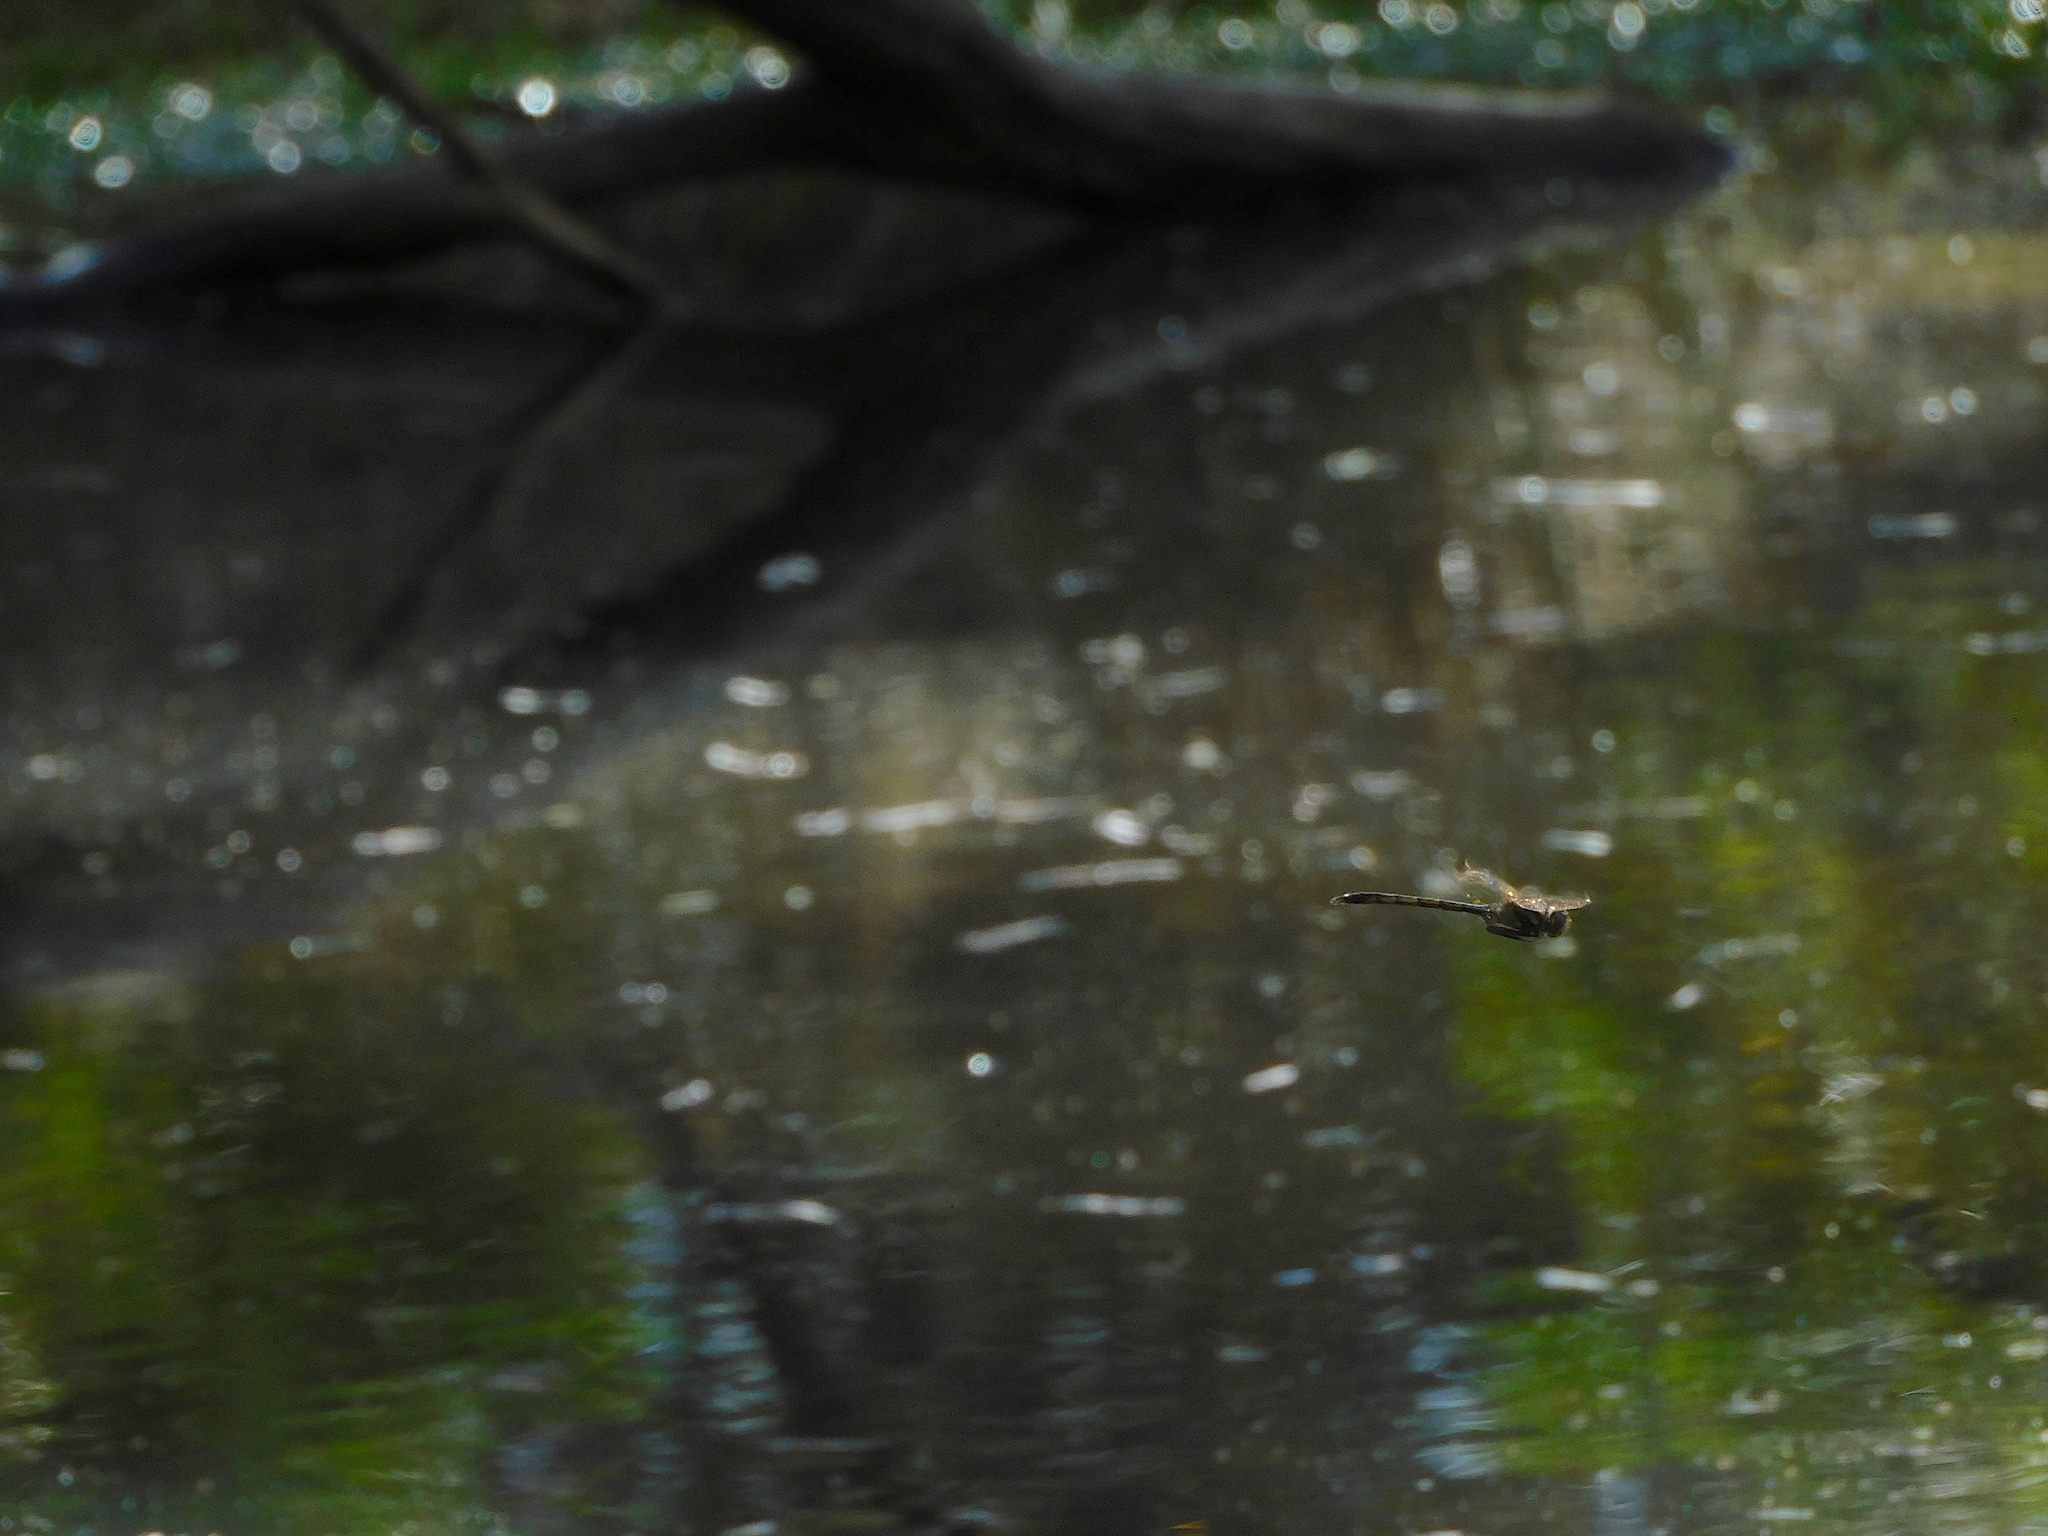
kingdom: Animalia
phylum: Arthropoda
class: Insecta
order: Odonata
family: Corduliidae
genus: Hemicordulia
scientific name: Hemicordulia tau
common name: Tau emerald
